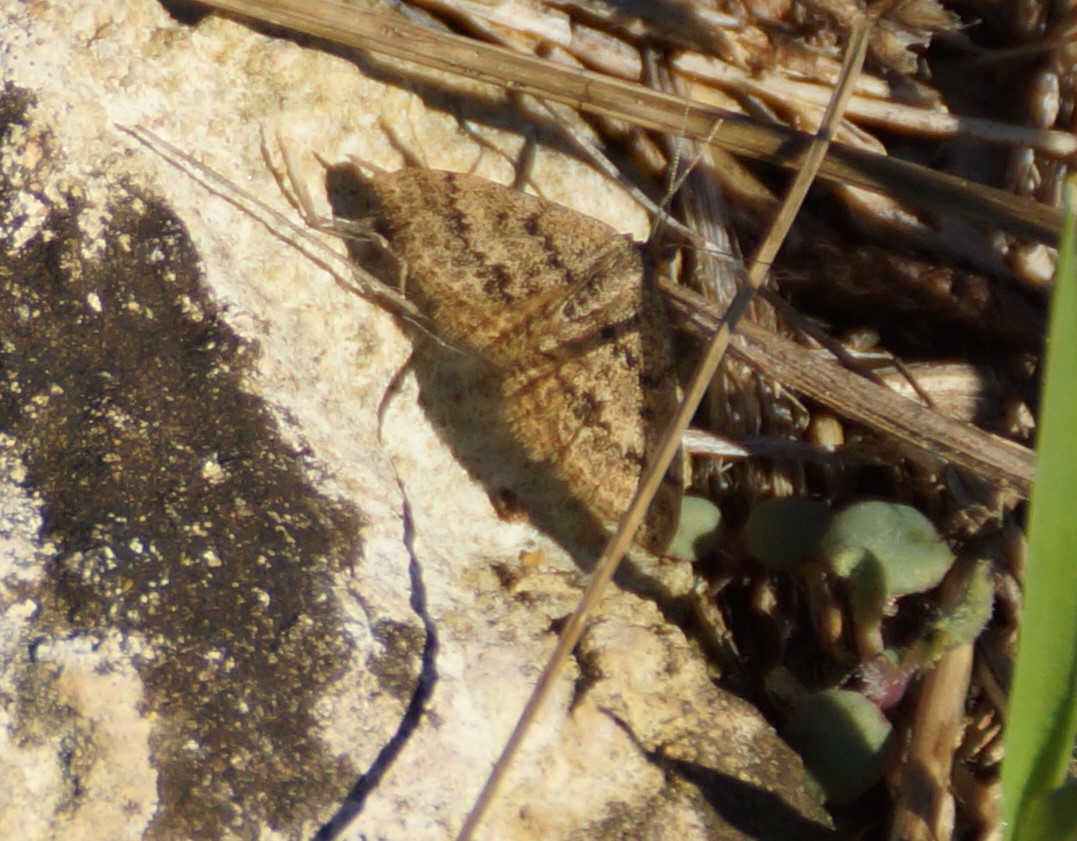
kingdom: Animalia
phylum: Arthropoda
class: Insecta
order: Lepidoptera
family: Geometridae
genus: Scopula
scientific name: Scopula rubraria
